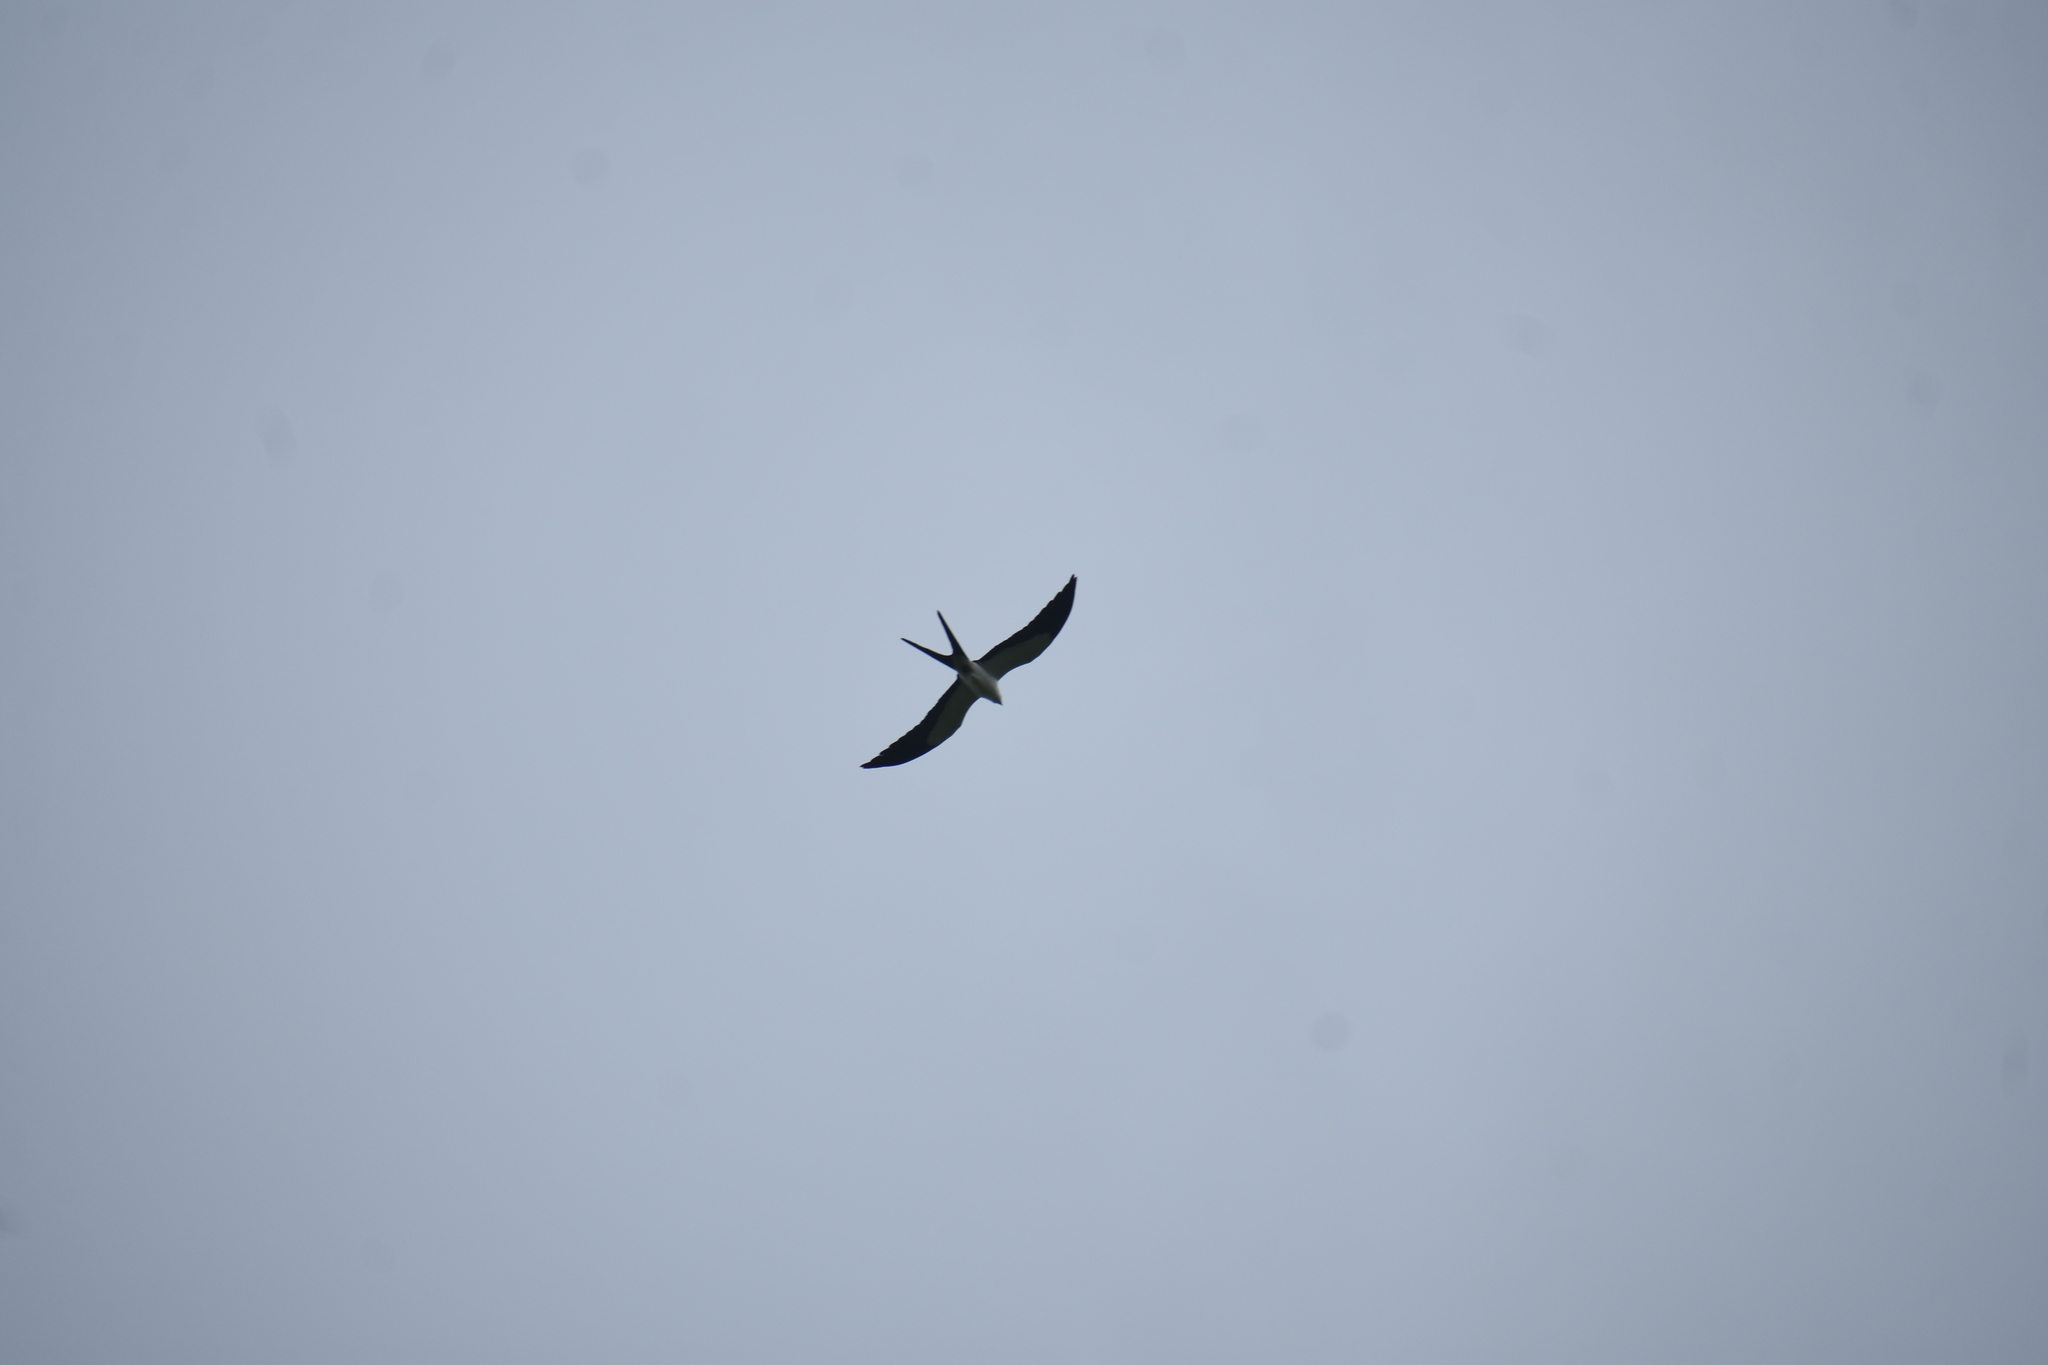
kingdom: Animalia
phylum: Chordata
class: Aves
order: Accipitriformes
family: Accipitridae
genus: Elanoides
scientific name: Elanoides forficatus
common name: Swallow-tailed kite
